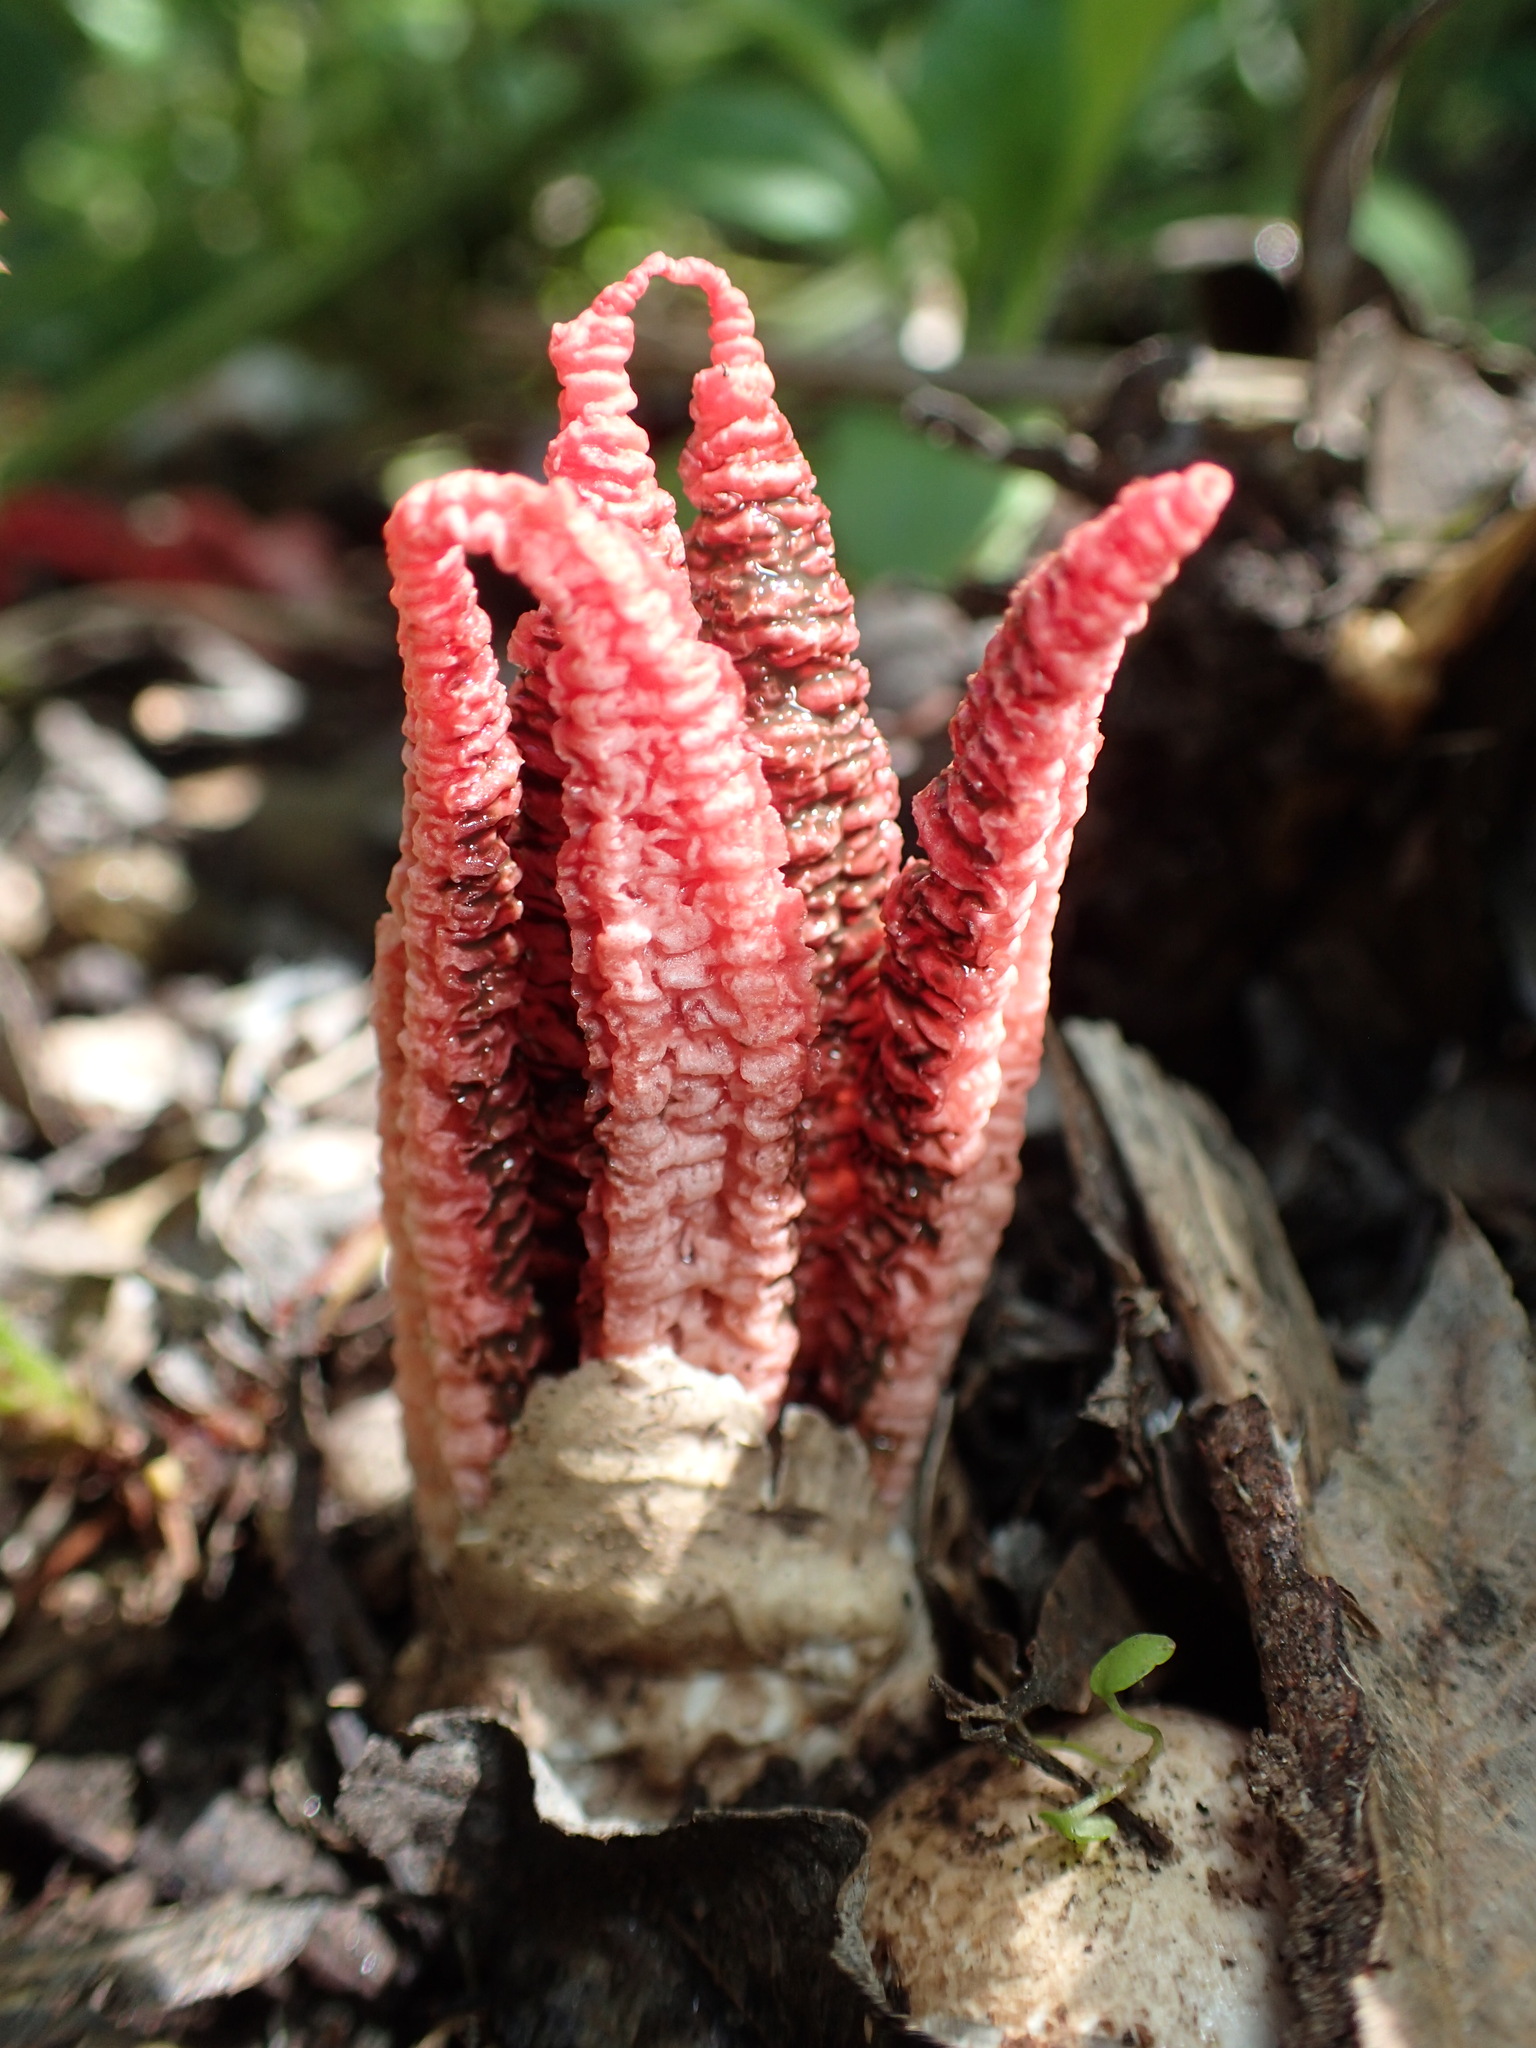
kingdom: Fungi
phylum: Basidiomycota
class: Agaricomycetes
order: Phallales
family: Phallaceae
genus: Clathrus
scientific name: Clathrus archeri
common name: Devil's fingers
